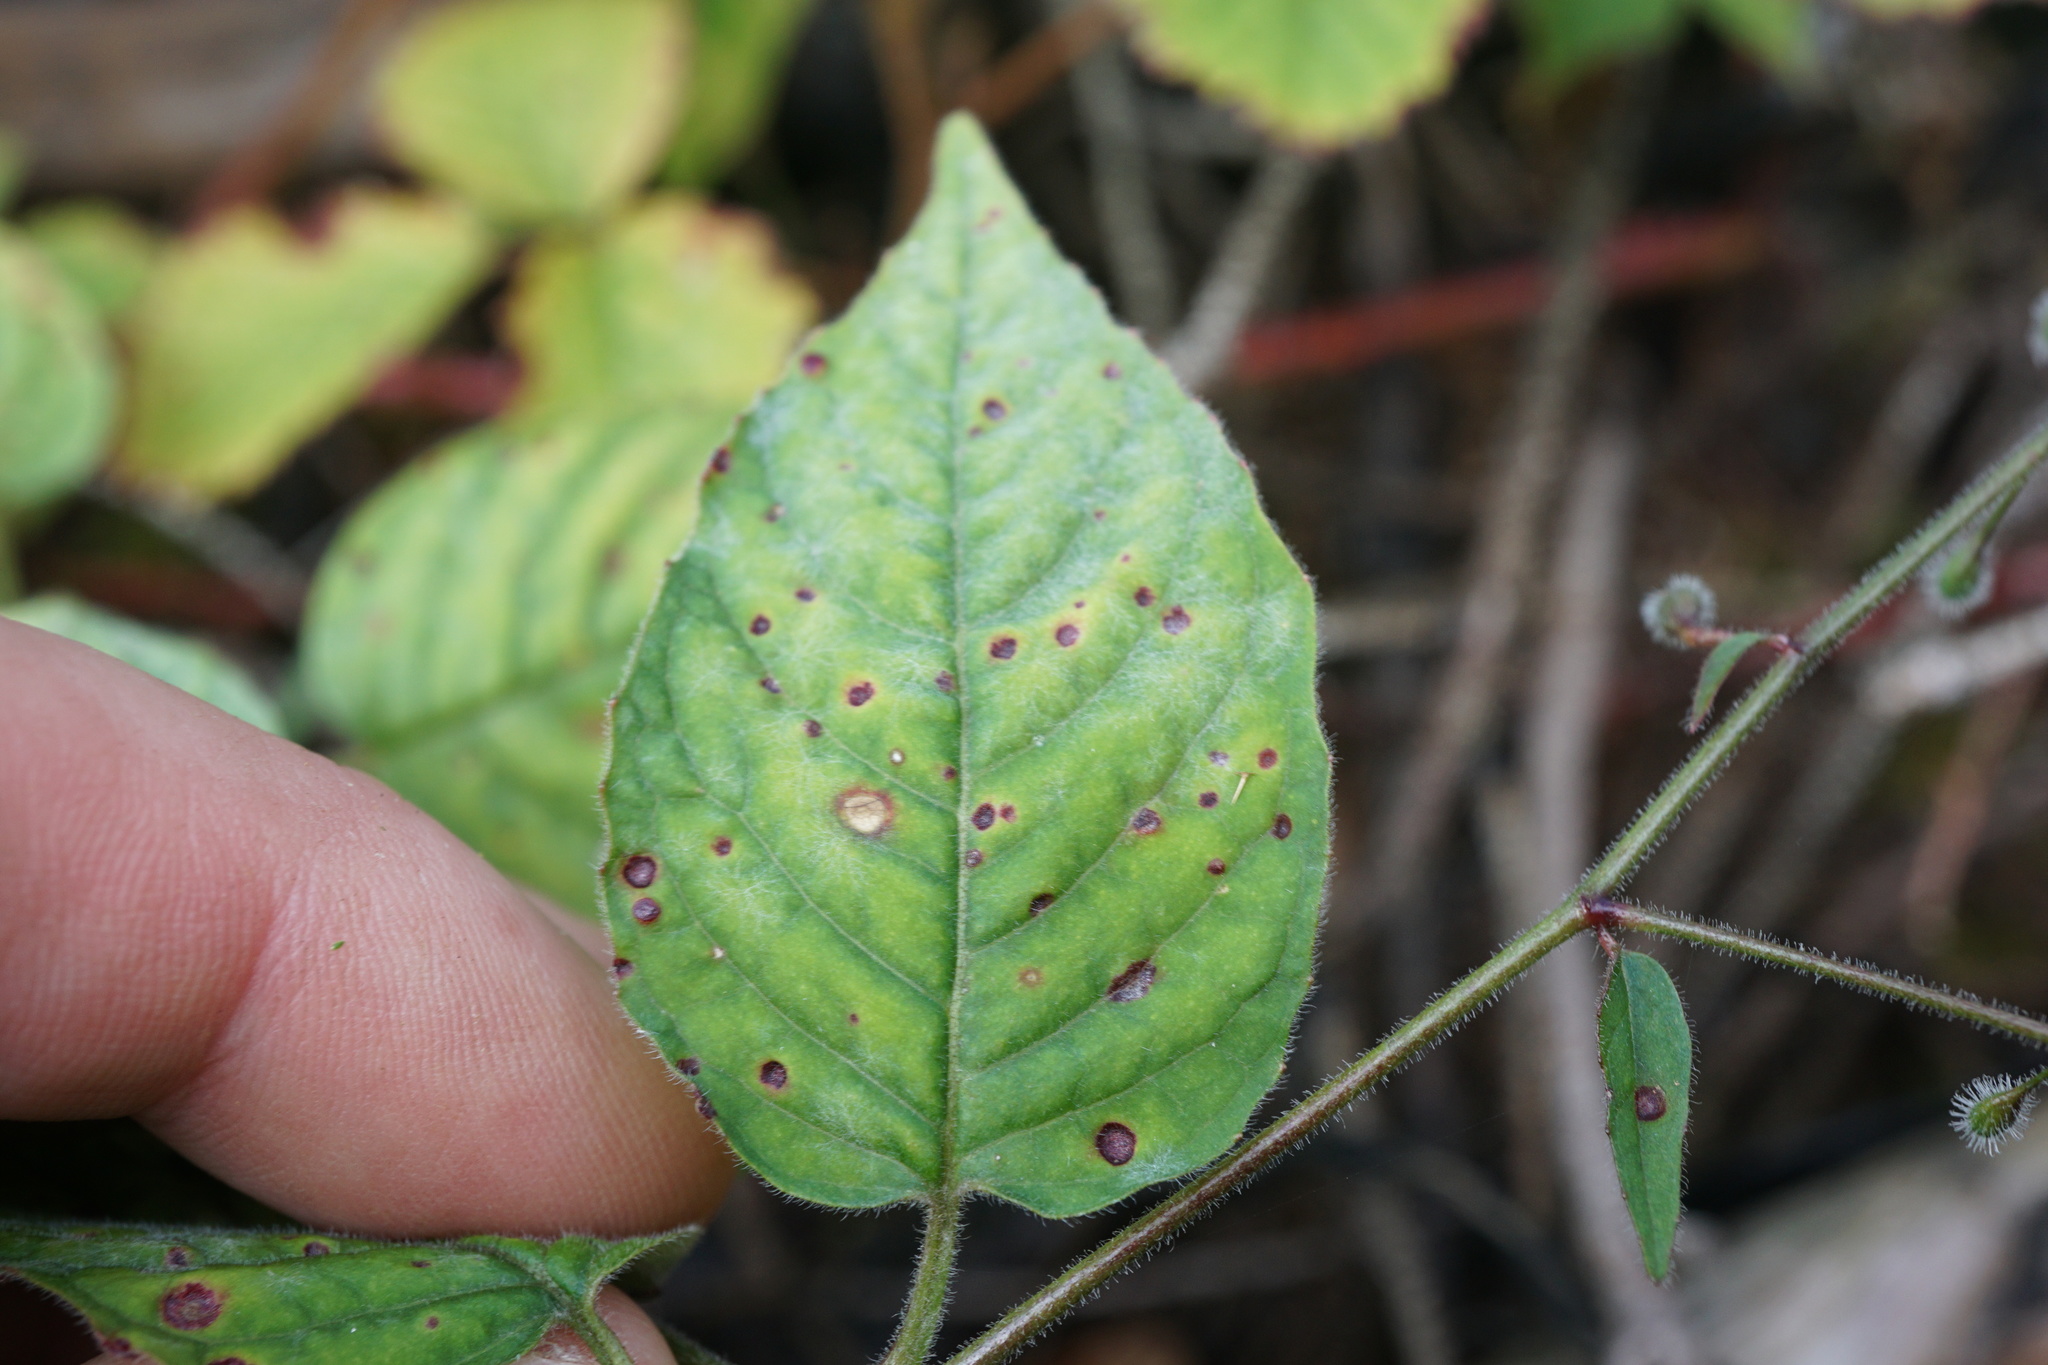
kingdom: Plantae
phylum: Tracheophyta
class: Magnoliopsida
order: Myrtales
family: Onagraceae
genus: Circaea
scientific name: Circaea lutetiana
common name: Enchanter's-nightshade
